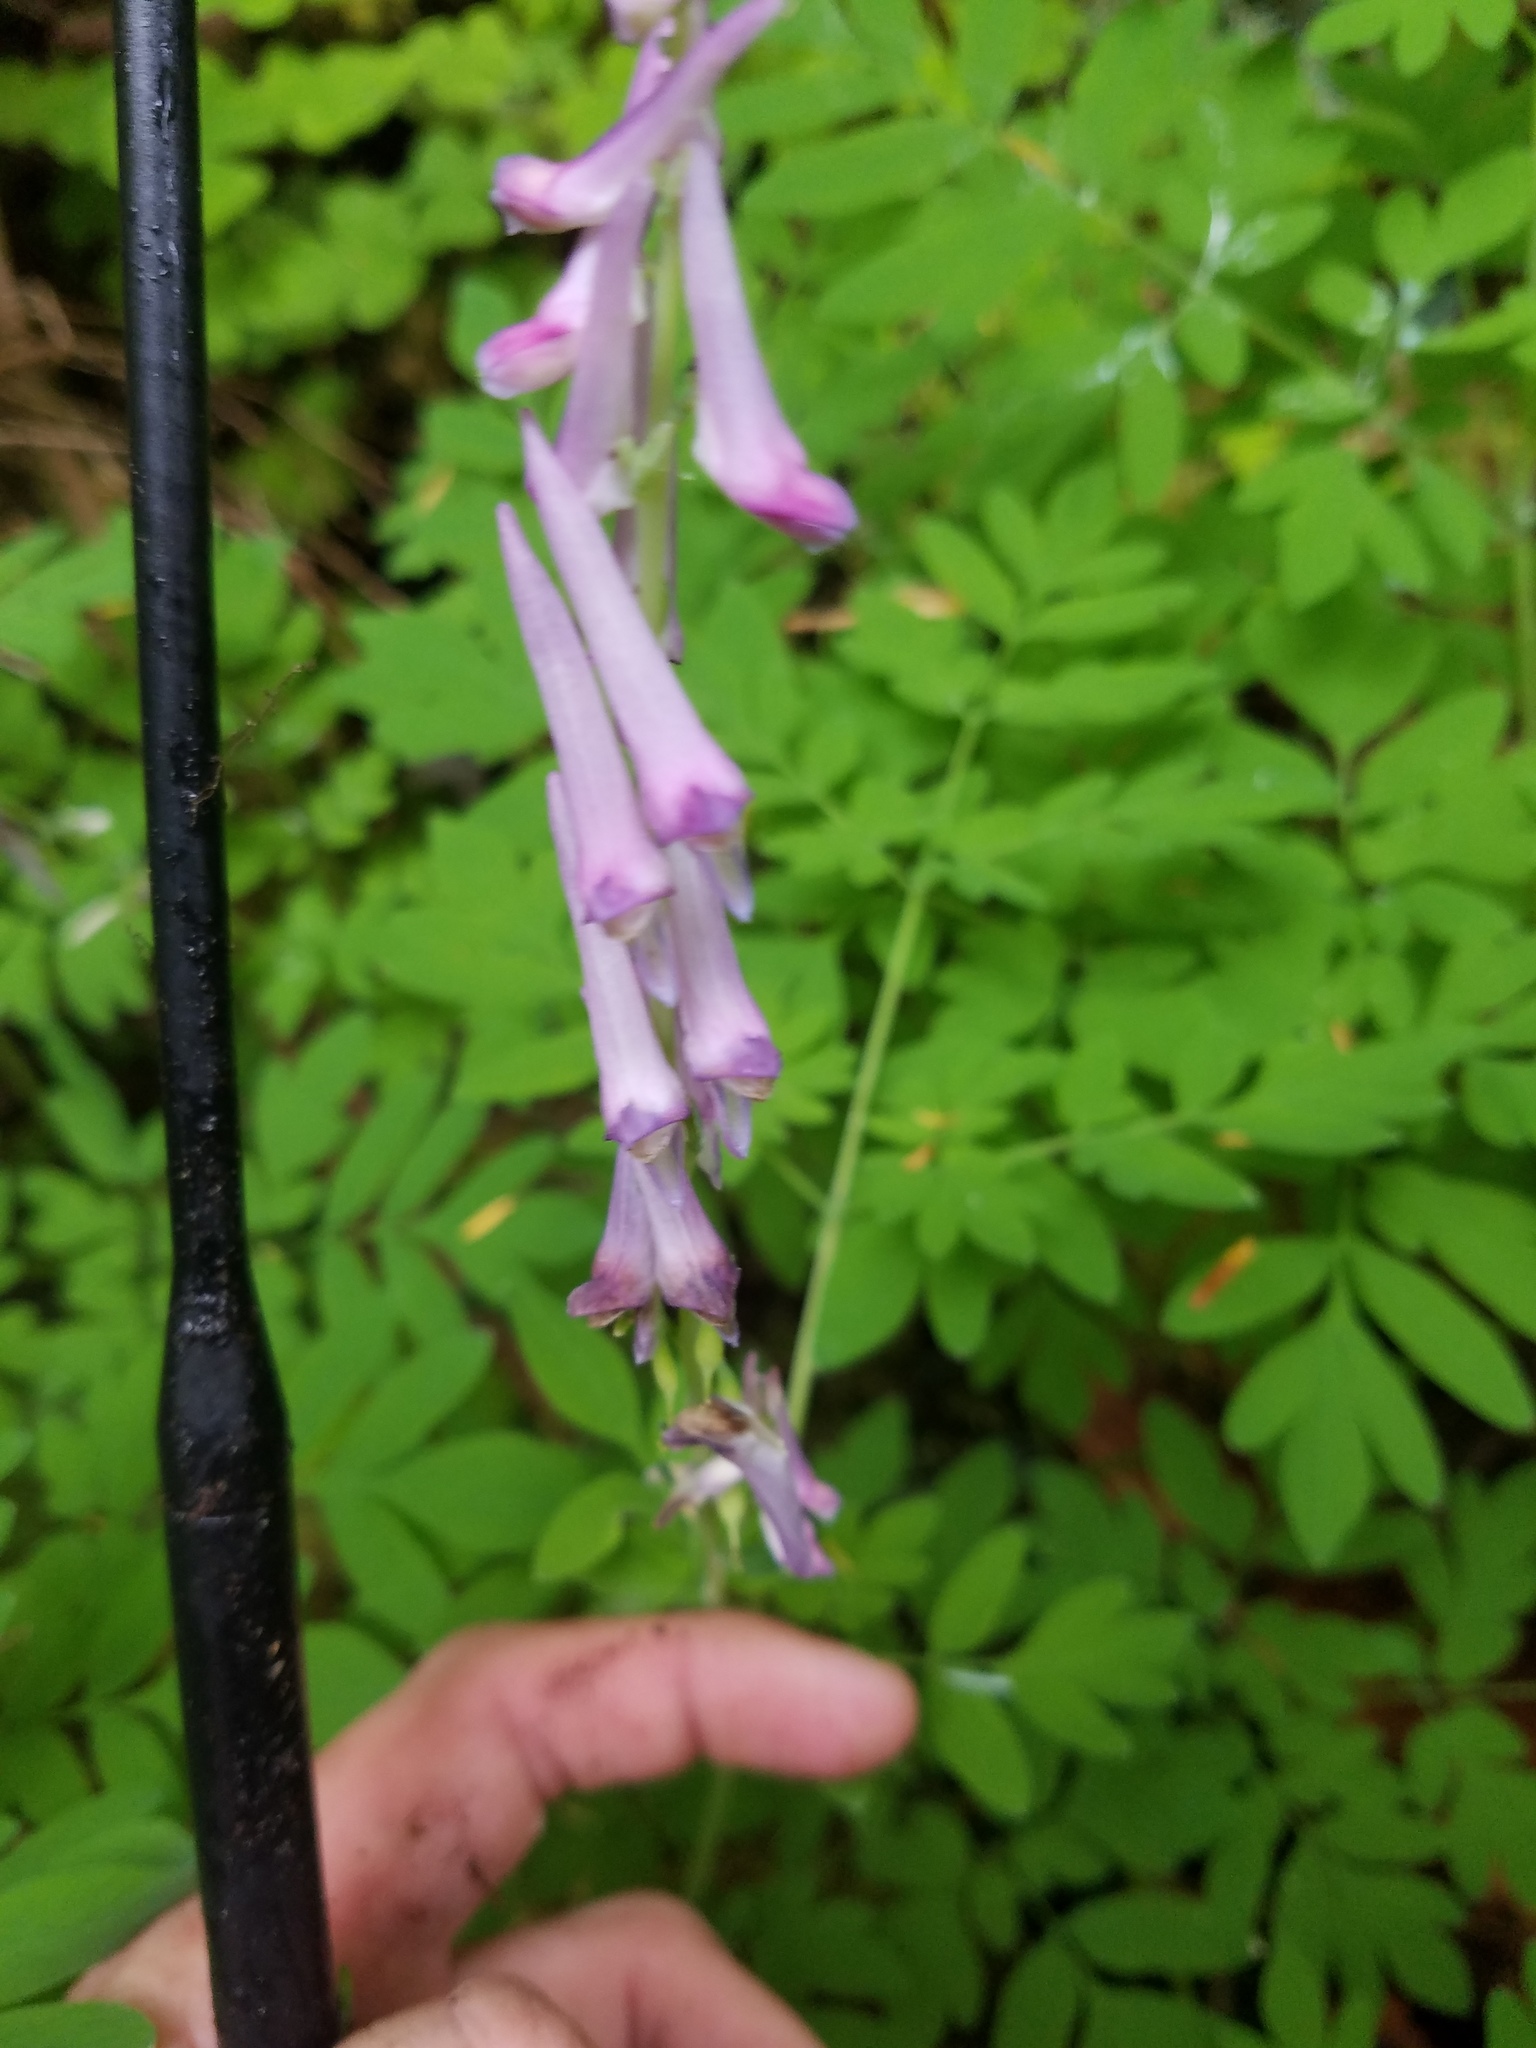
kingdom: Plantae
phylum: Tracheophyta
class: Magnoliopsida
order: Ranunculales
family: Papaveraceae
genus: Corydalis
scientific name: Corydalis scouleri
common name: Scouler's corydalis
